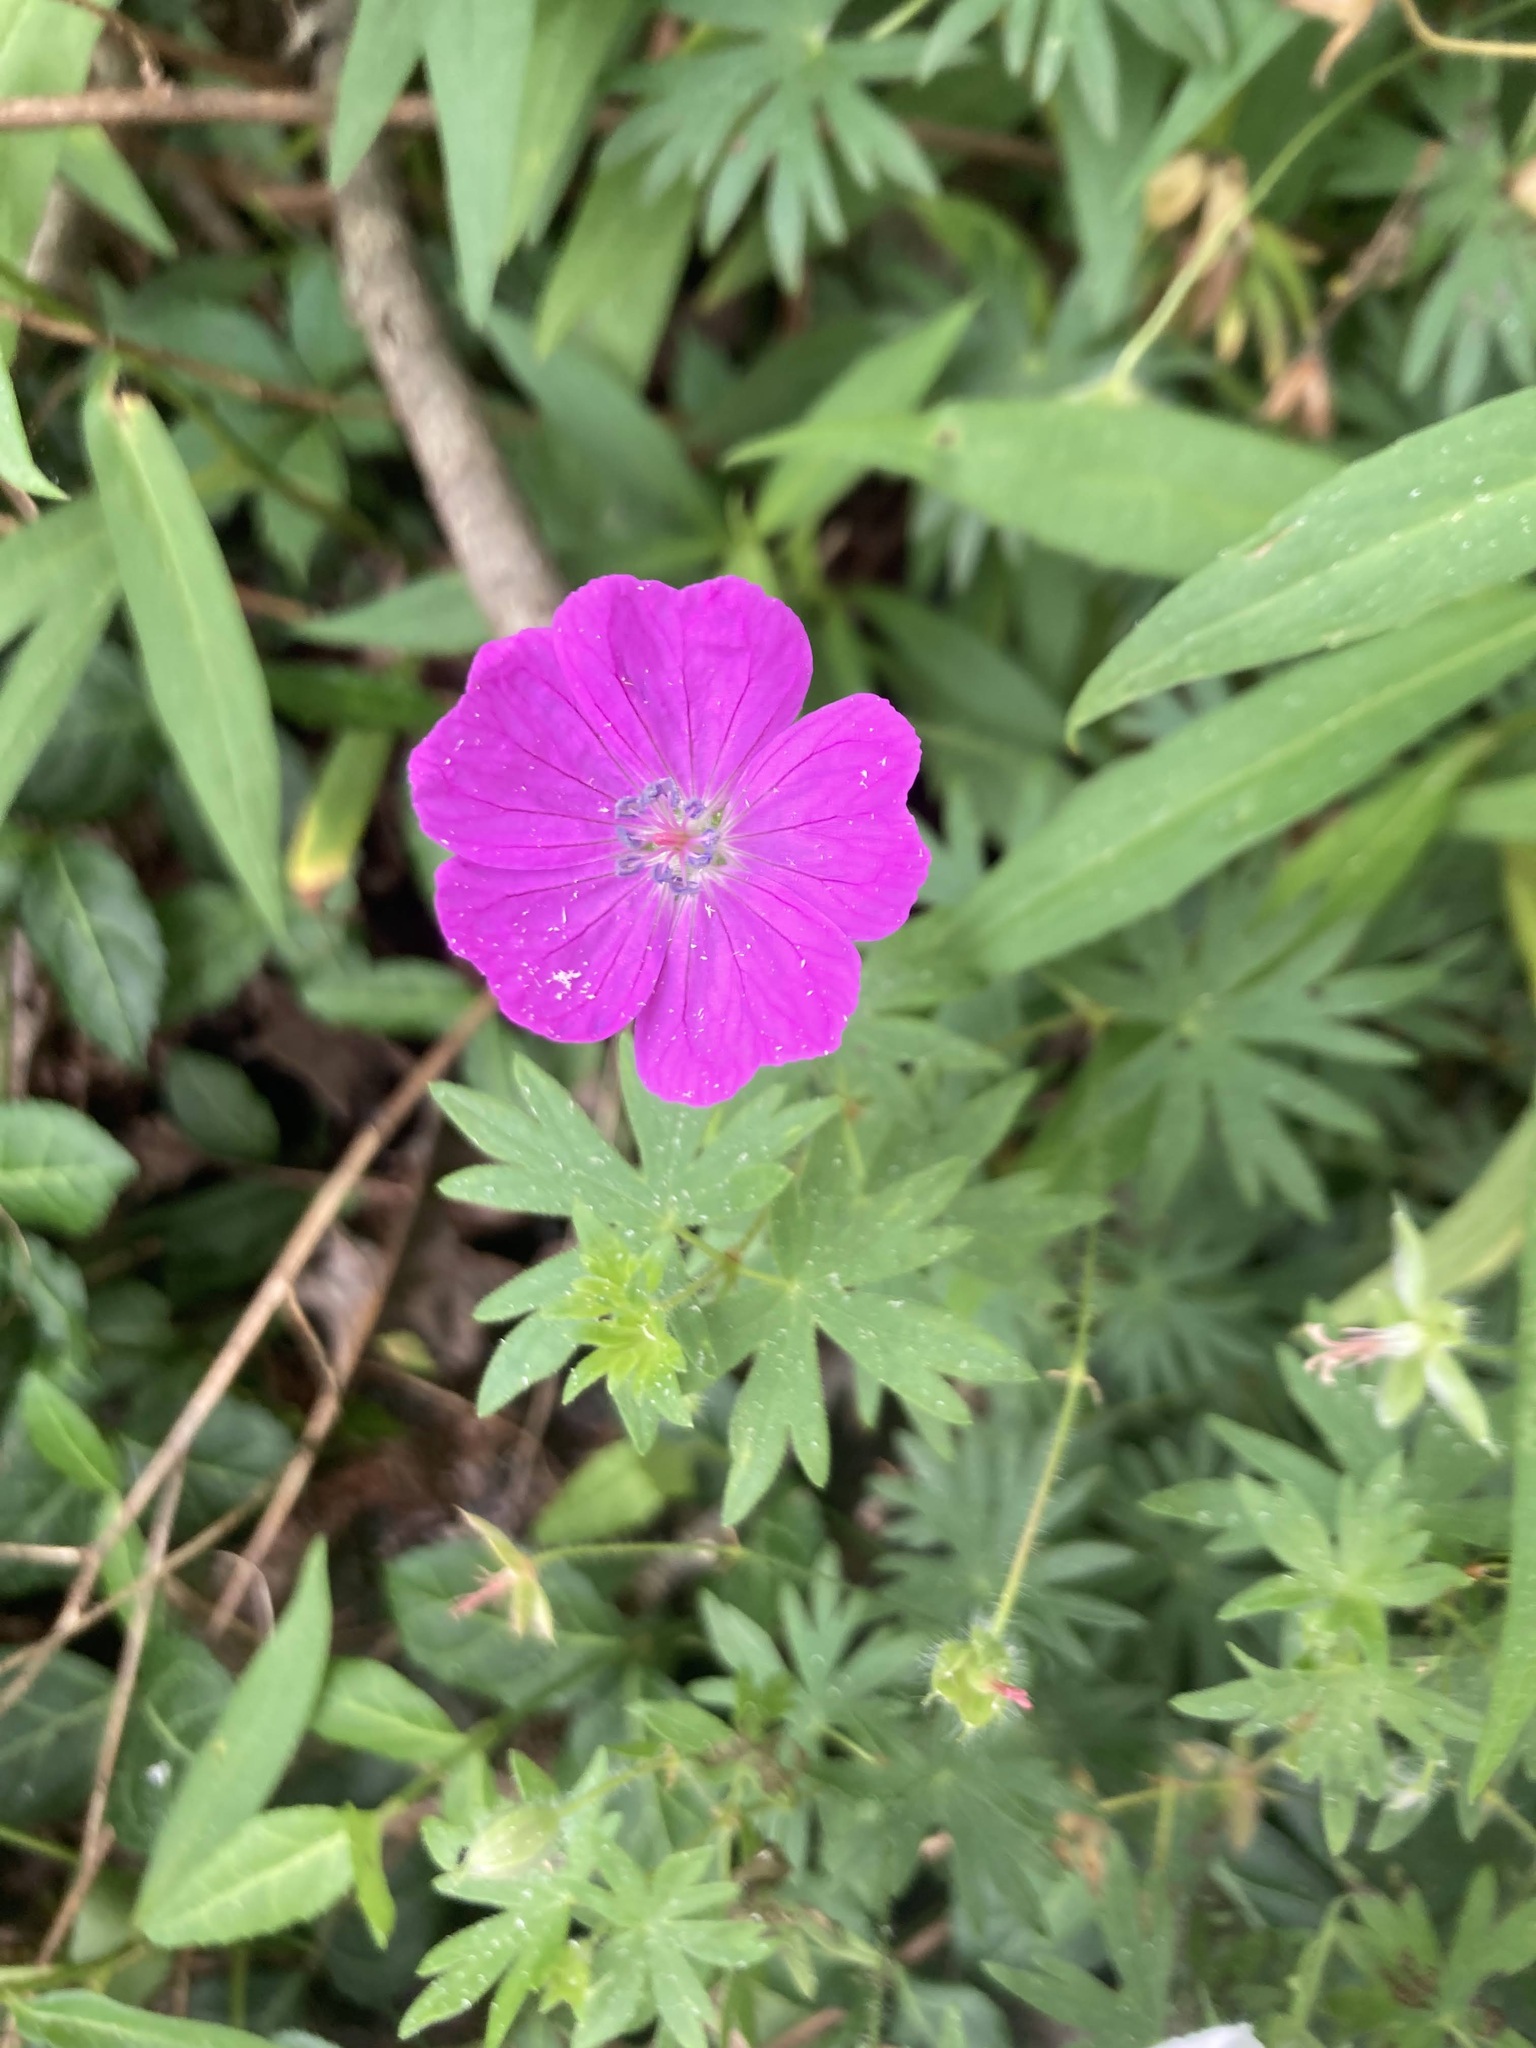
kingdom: Plantae
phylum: Tracheophyta
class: Magnoliopsida
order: Geraniales
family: Geraniaceae
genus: Geranium
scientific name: Geranium sanguineum
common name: Bloody crane's-bill
